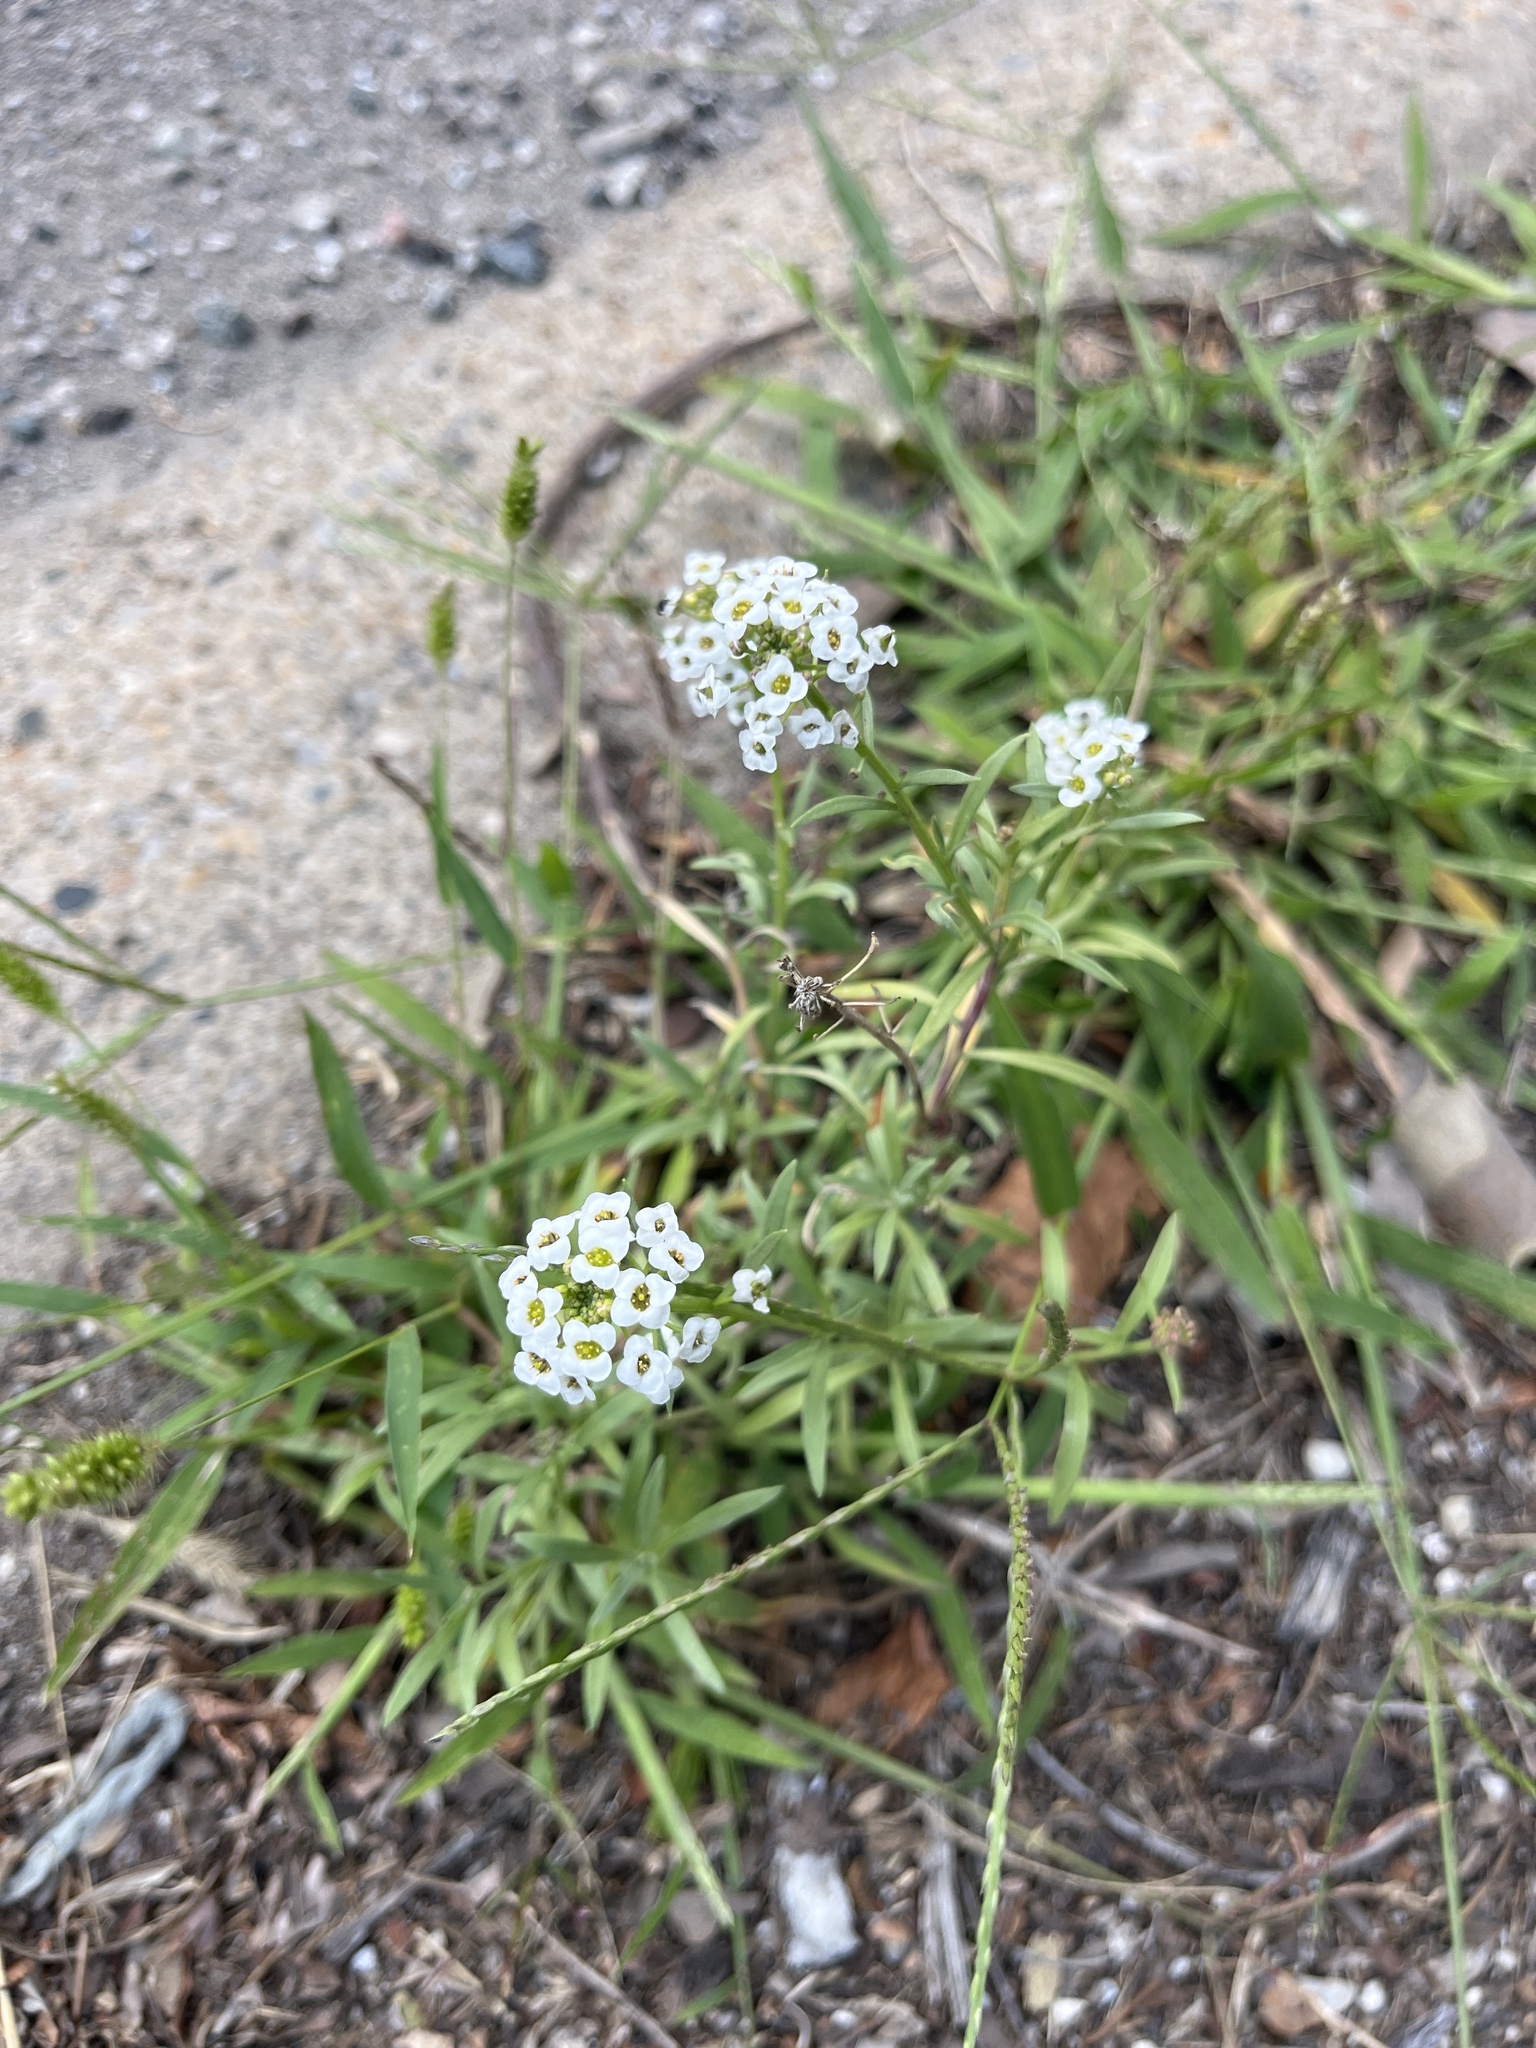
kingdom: Plantae
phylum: Tracheophyta
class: Magnoliopsida
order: Brassicales
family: Brassicaceae
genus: Lobularia
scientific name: Lobularia maritima
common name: Sweet alison
